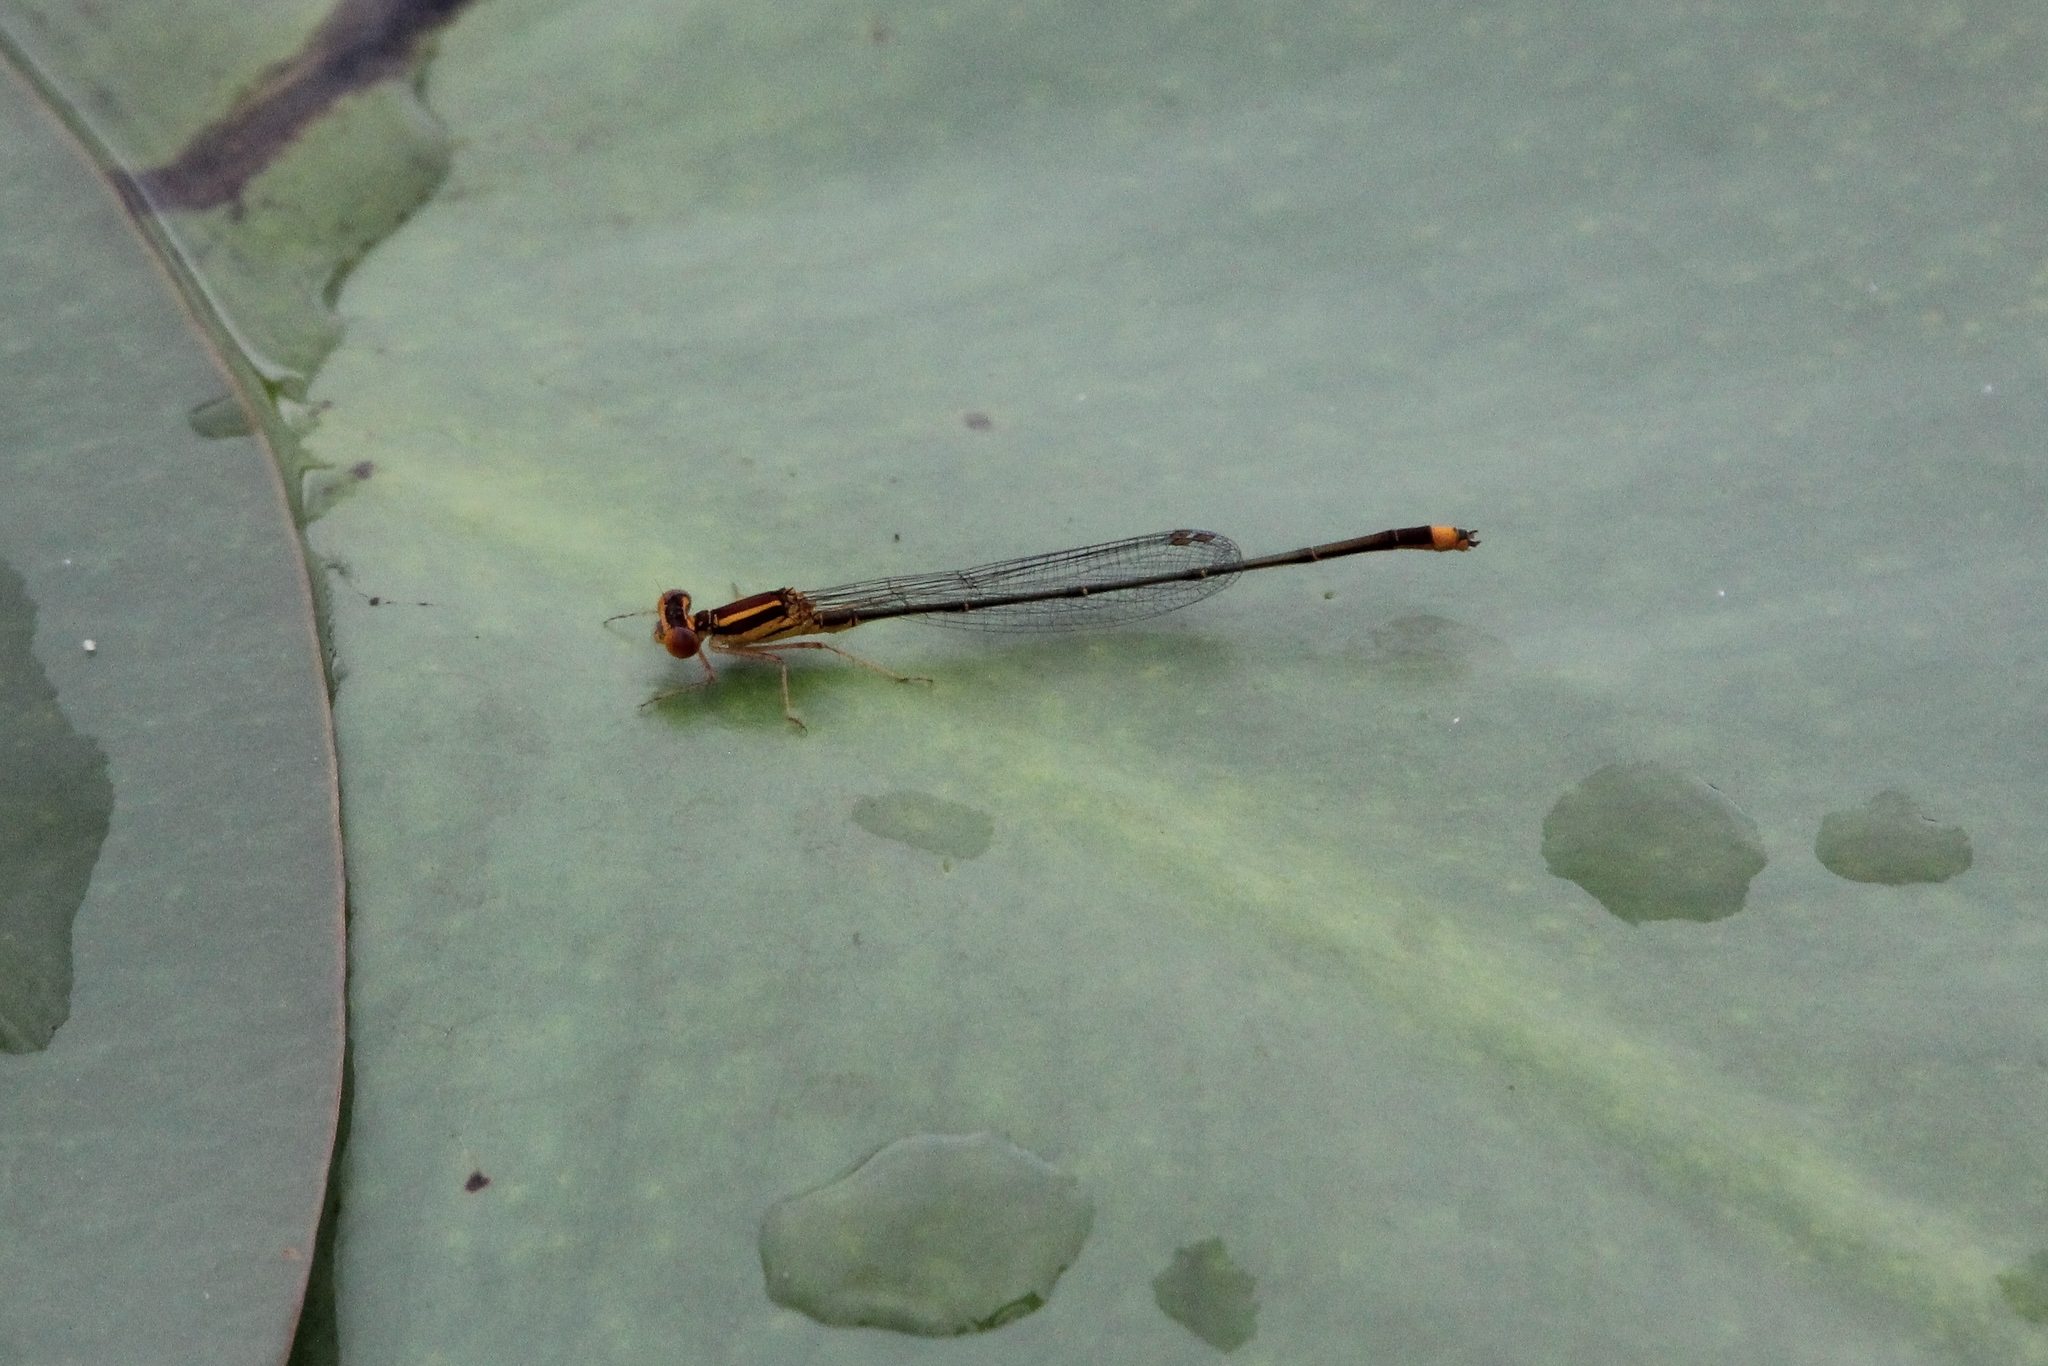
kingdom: Animalia
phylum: Arthropoda
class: Insecta
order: Odonata
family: Coenagrionidae
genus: Enallagma
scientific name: Enallagma pollutum
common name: Florida bluet
